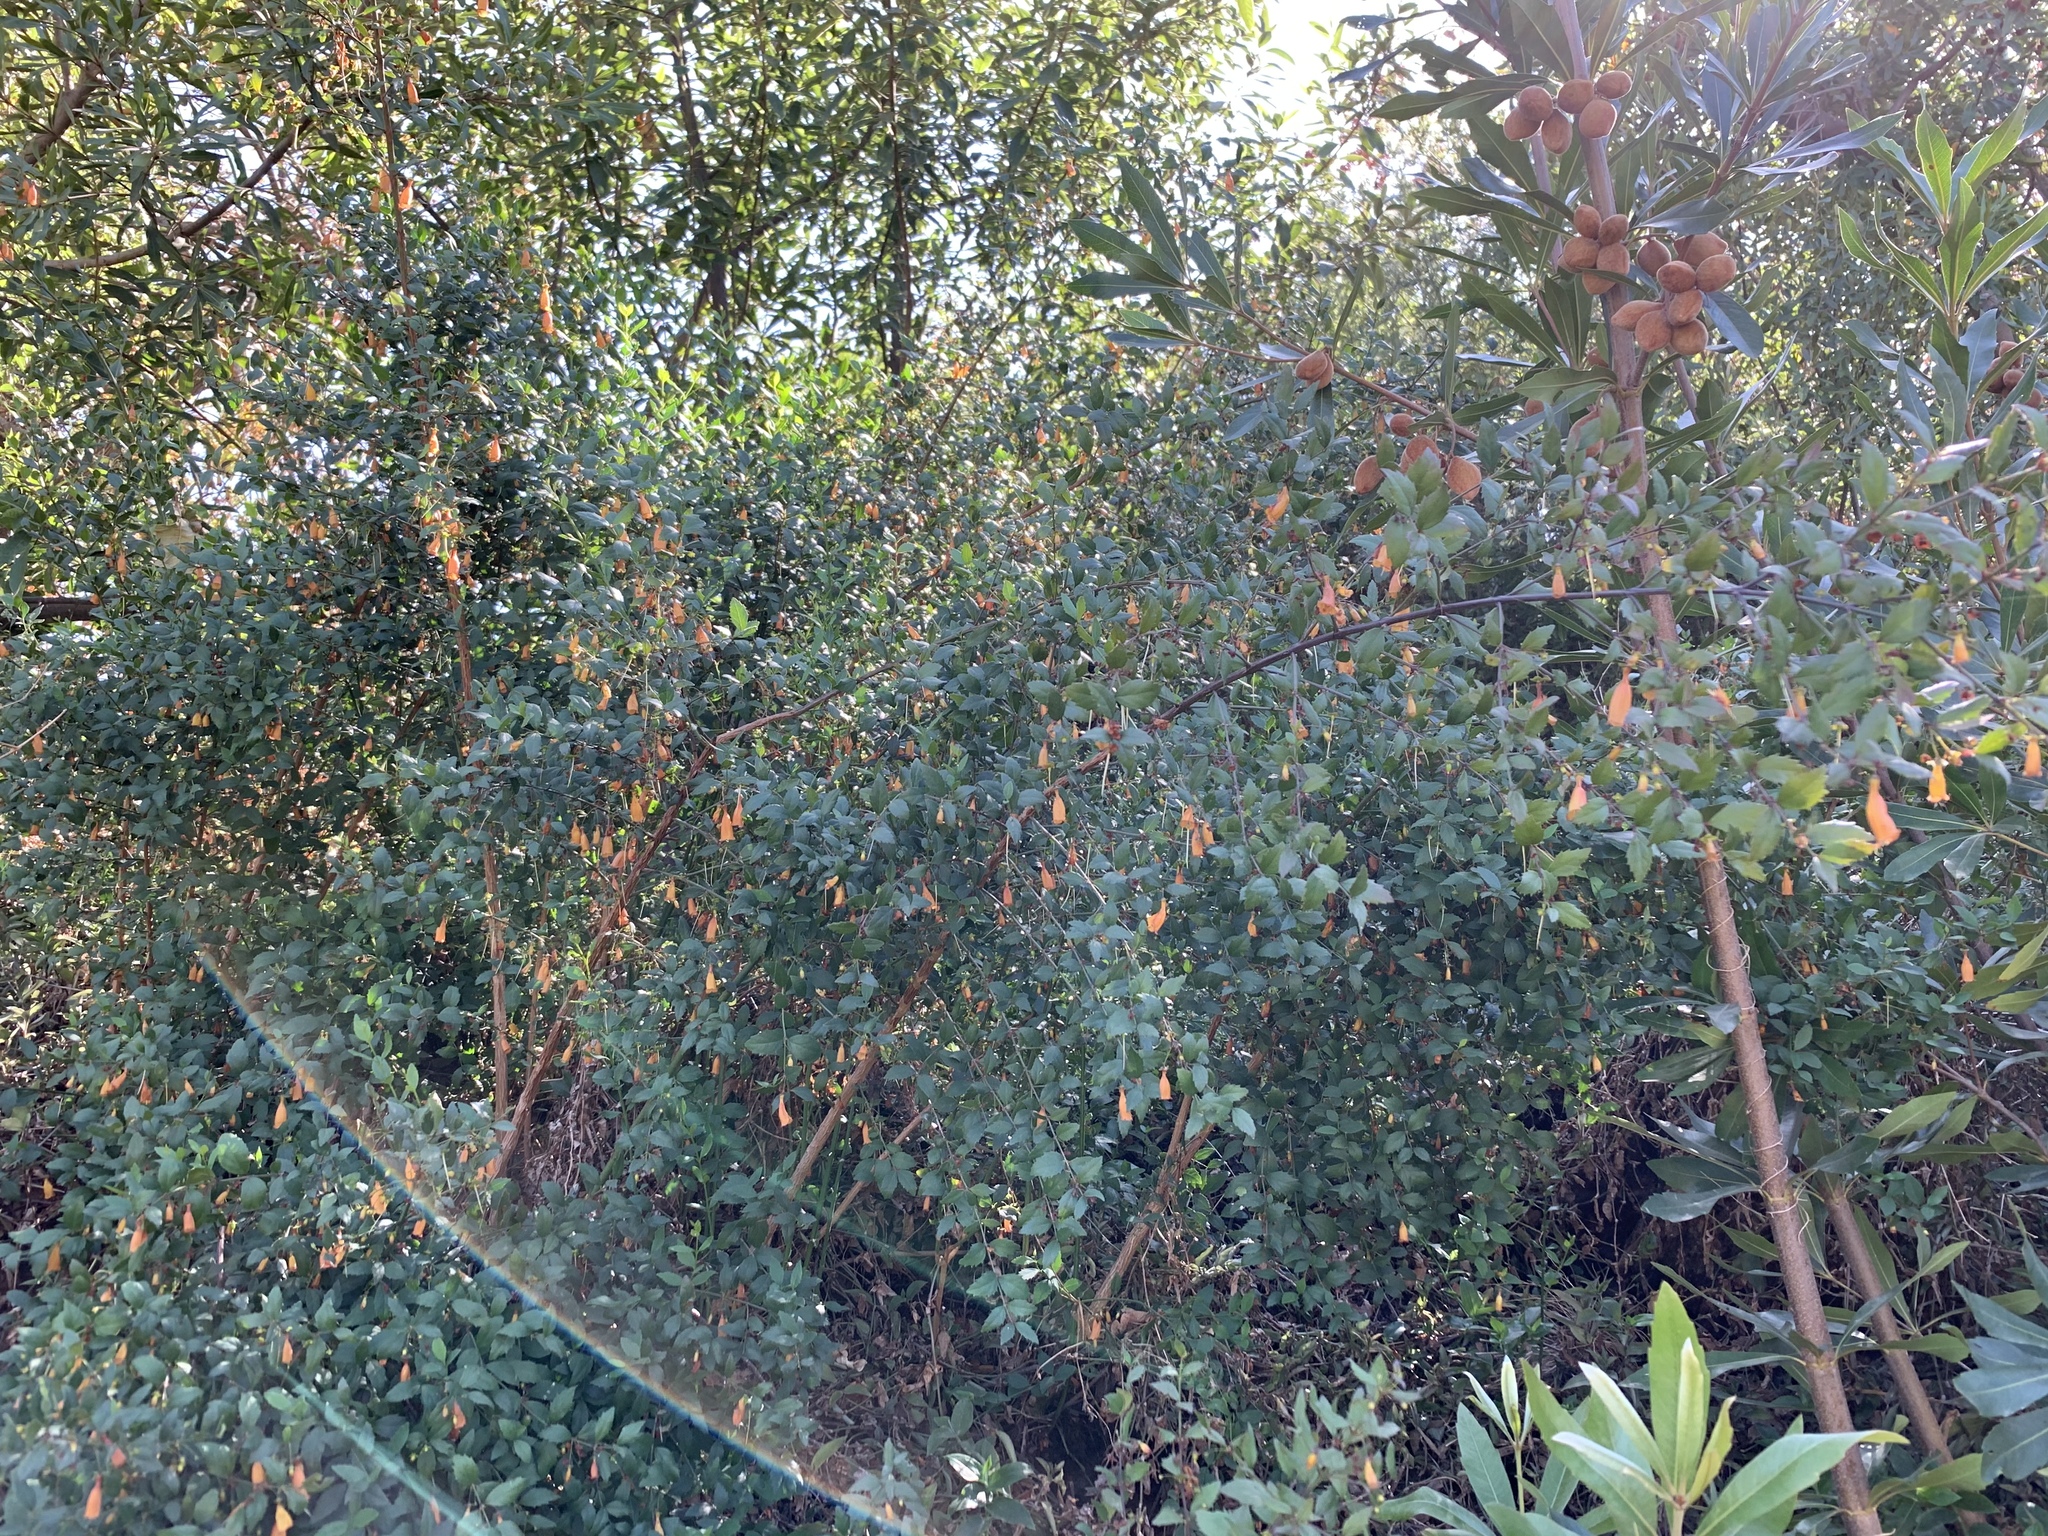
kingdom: Plantae
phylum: Tracheophyta
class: Magnoliopsida
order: Lamiales
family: Stilbaceae
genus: Halleria
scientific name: Halleria elliptica
